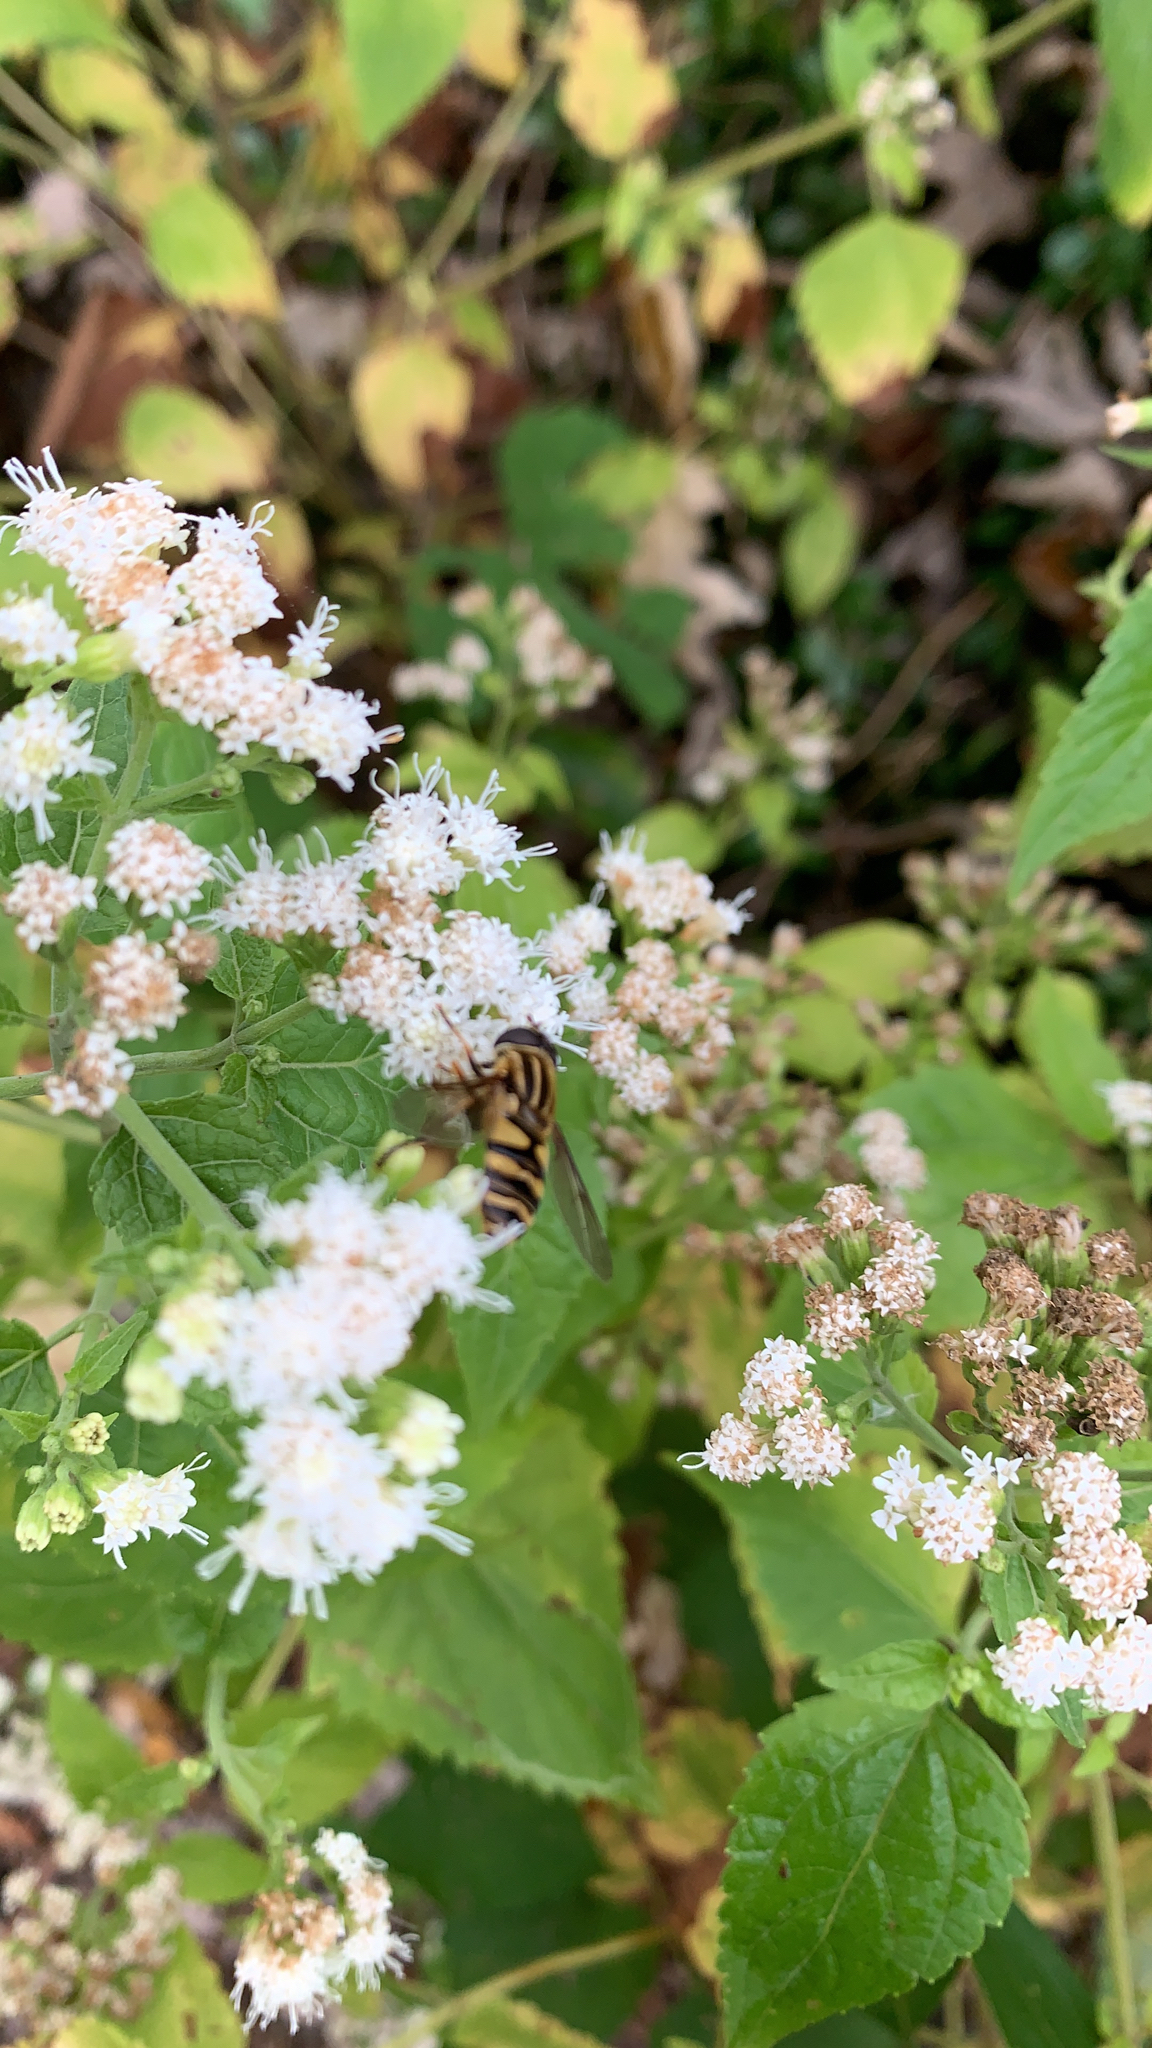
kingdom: Animalia
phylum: Arthropoda
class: Insecta
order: Diptera
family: Syrphidae
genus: Helophilus
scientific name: Helophilus fasciatus
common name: Narrow-headed marsh fly
